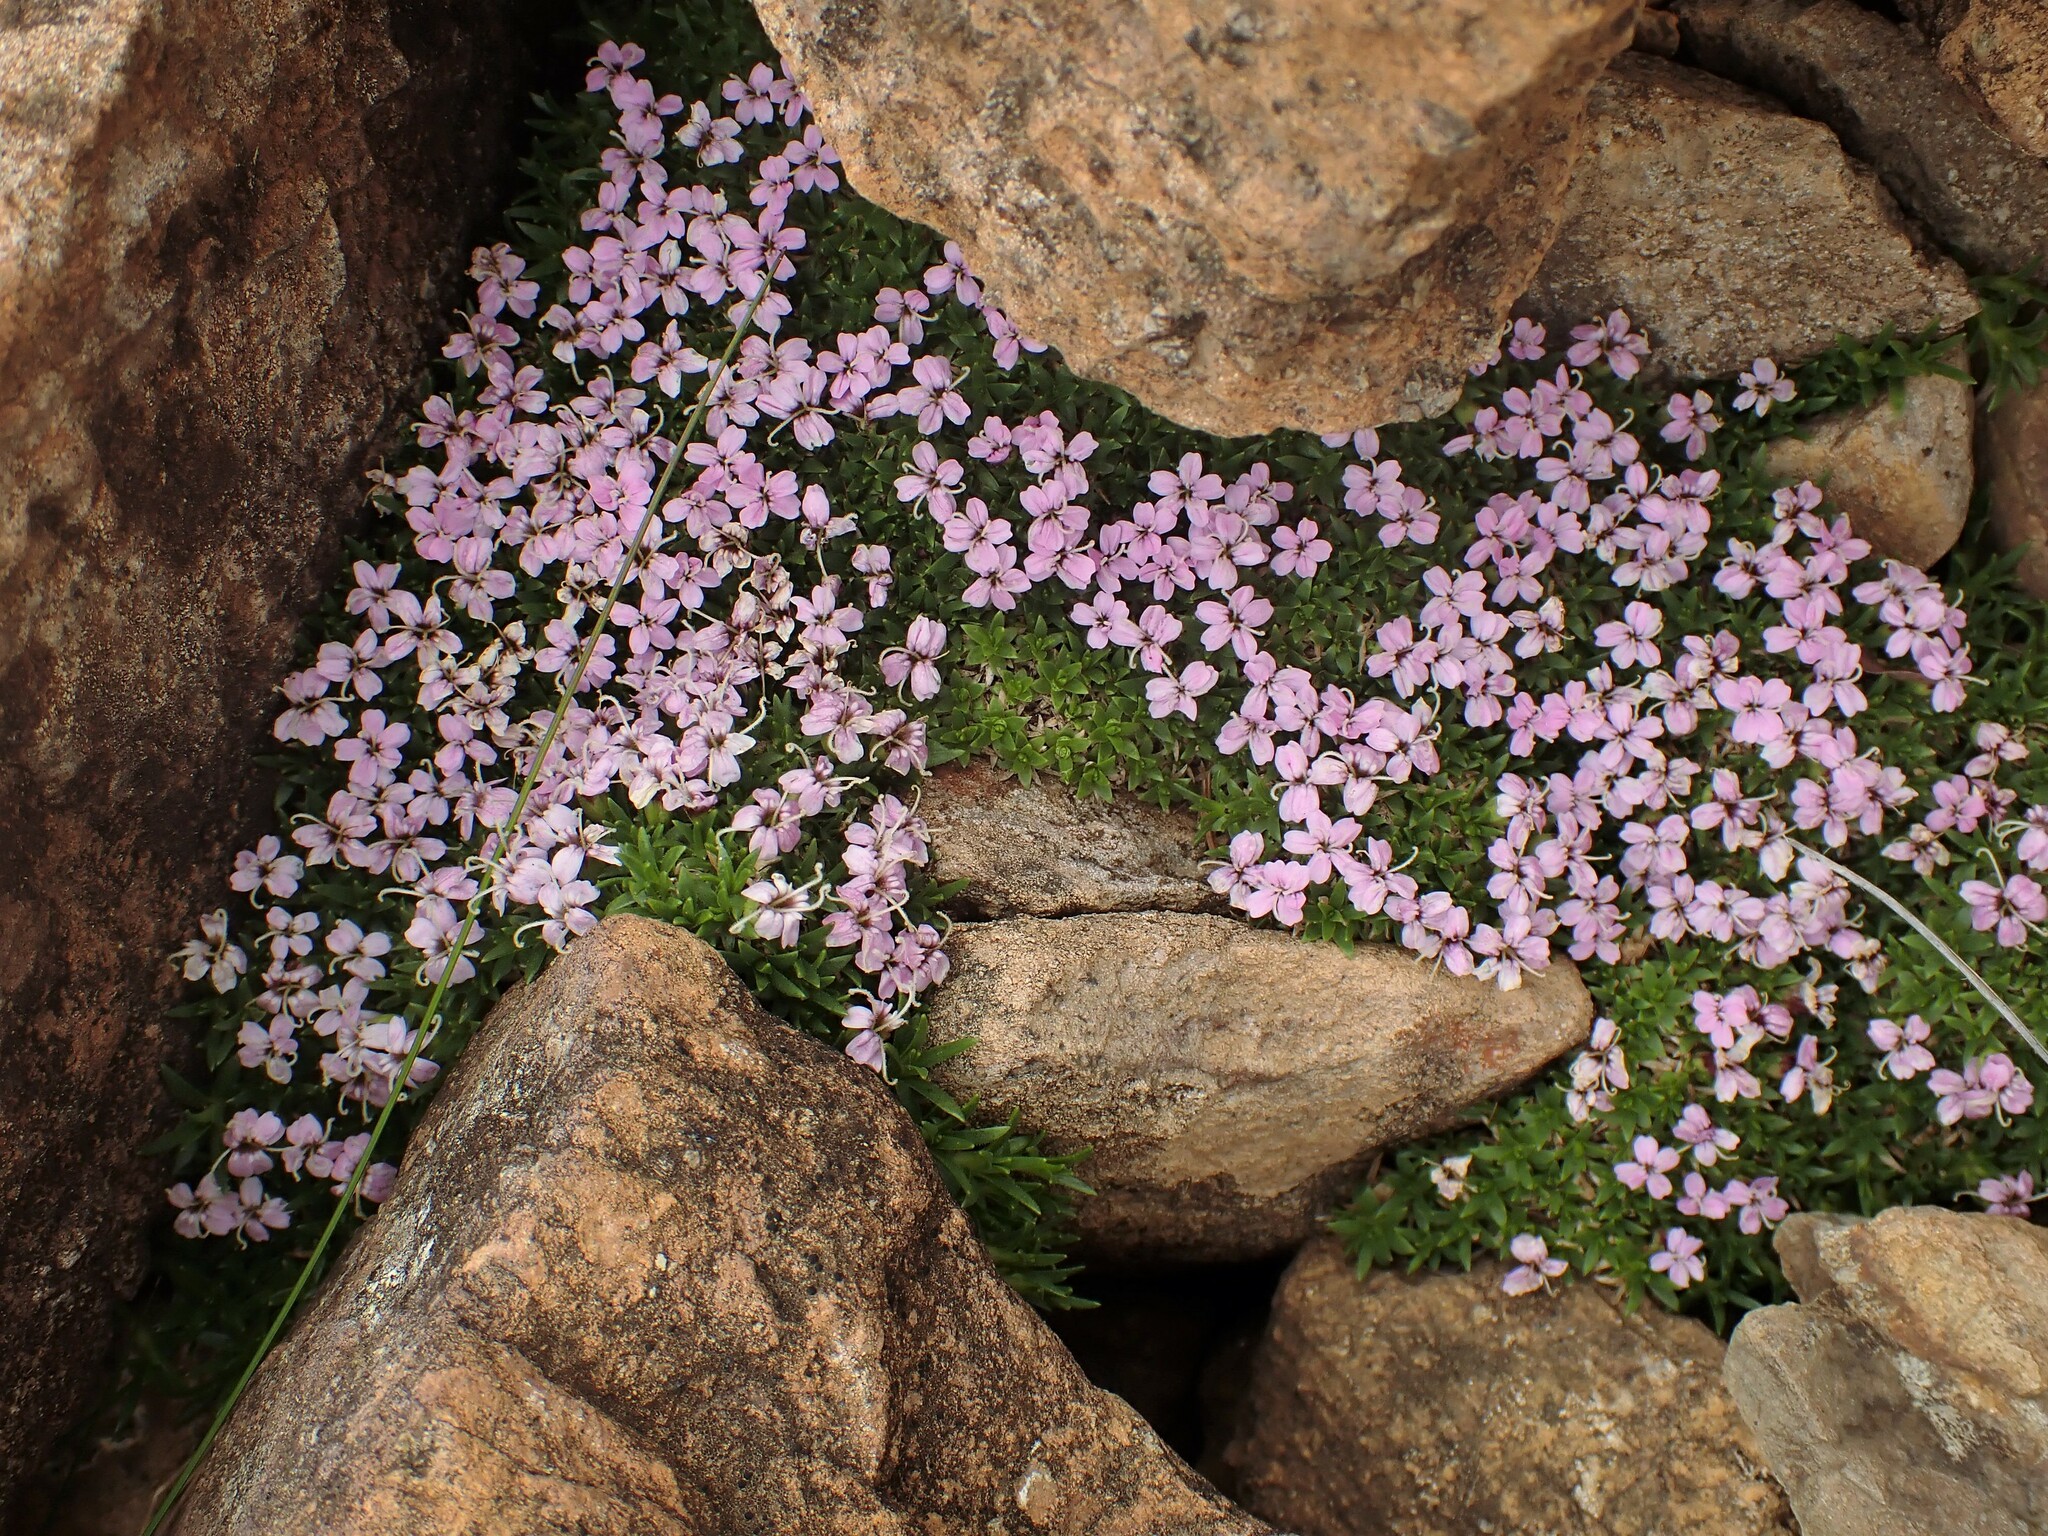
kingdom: Plantae
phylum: Tracheophyta
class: Magnoliopsida
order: Caryophyllales
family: Caryophyllaceae
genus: Silene
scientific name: Silene acaulis
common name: Moss campion
